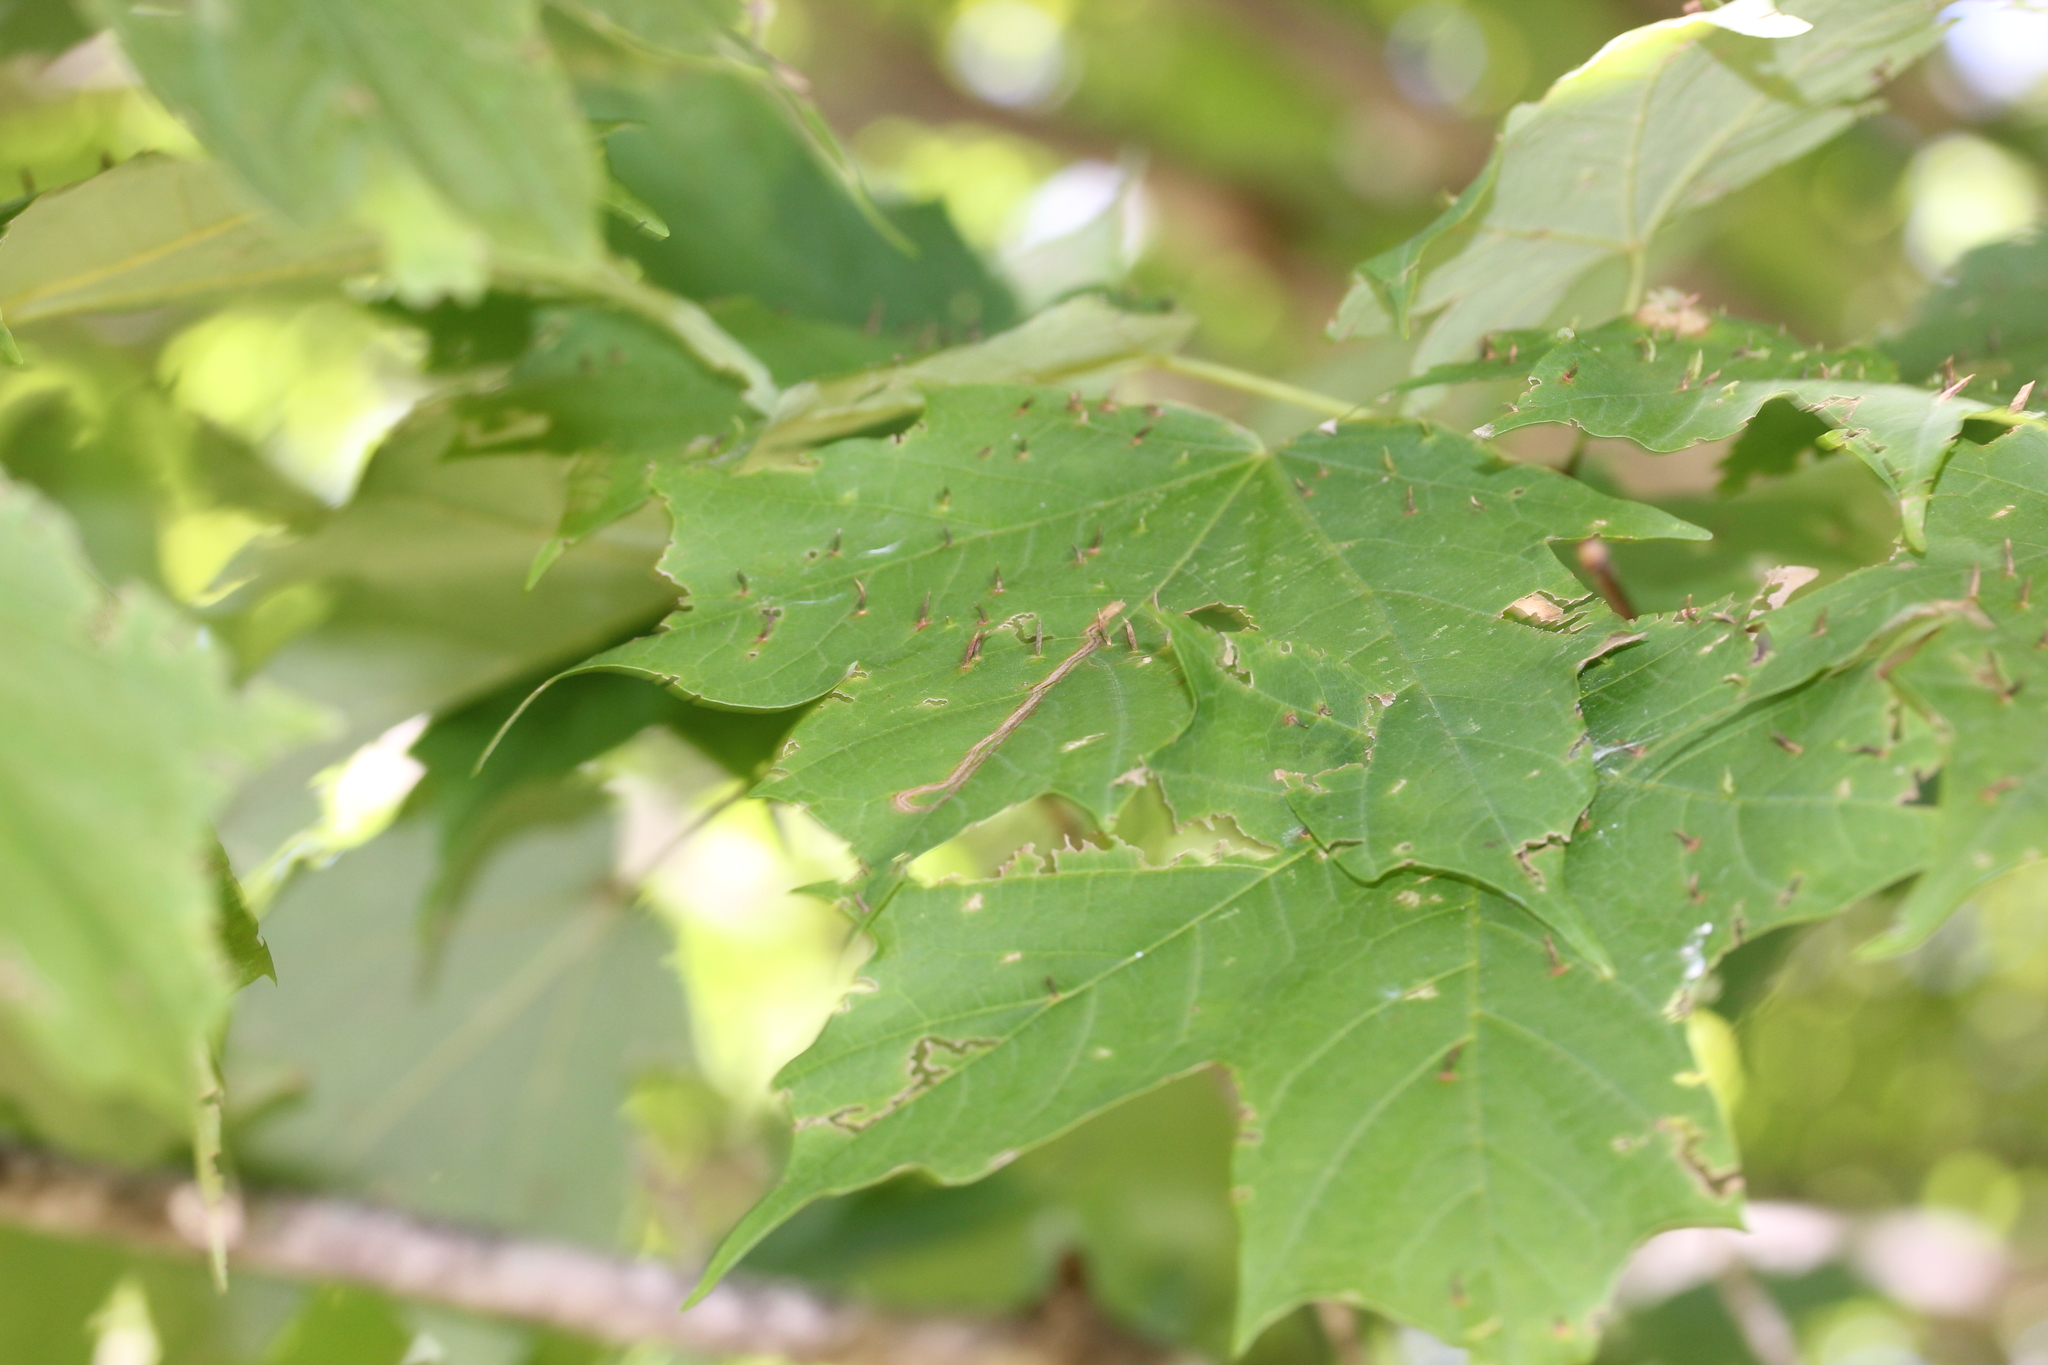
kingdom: Animalia
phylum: Arthropoda
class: Arachnida
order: Trombidiformes
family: Eriophyidae
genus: Vasates
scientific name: Vasates aceriscrumena
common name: Maple spindle gall mite
